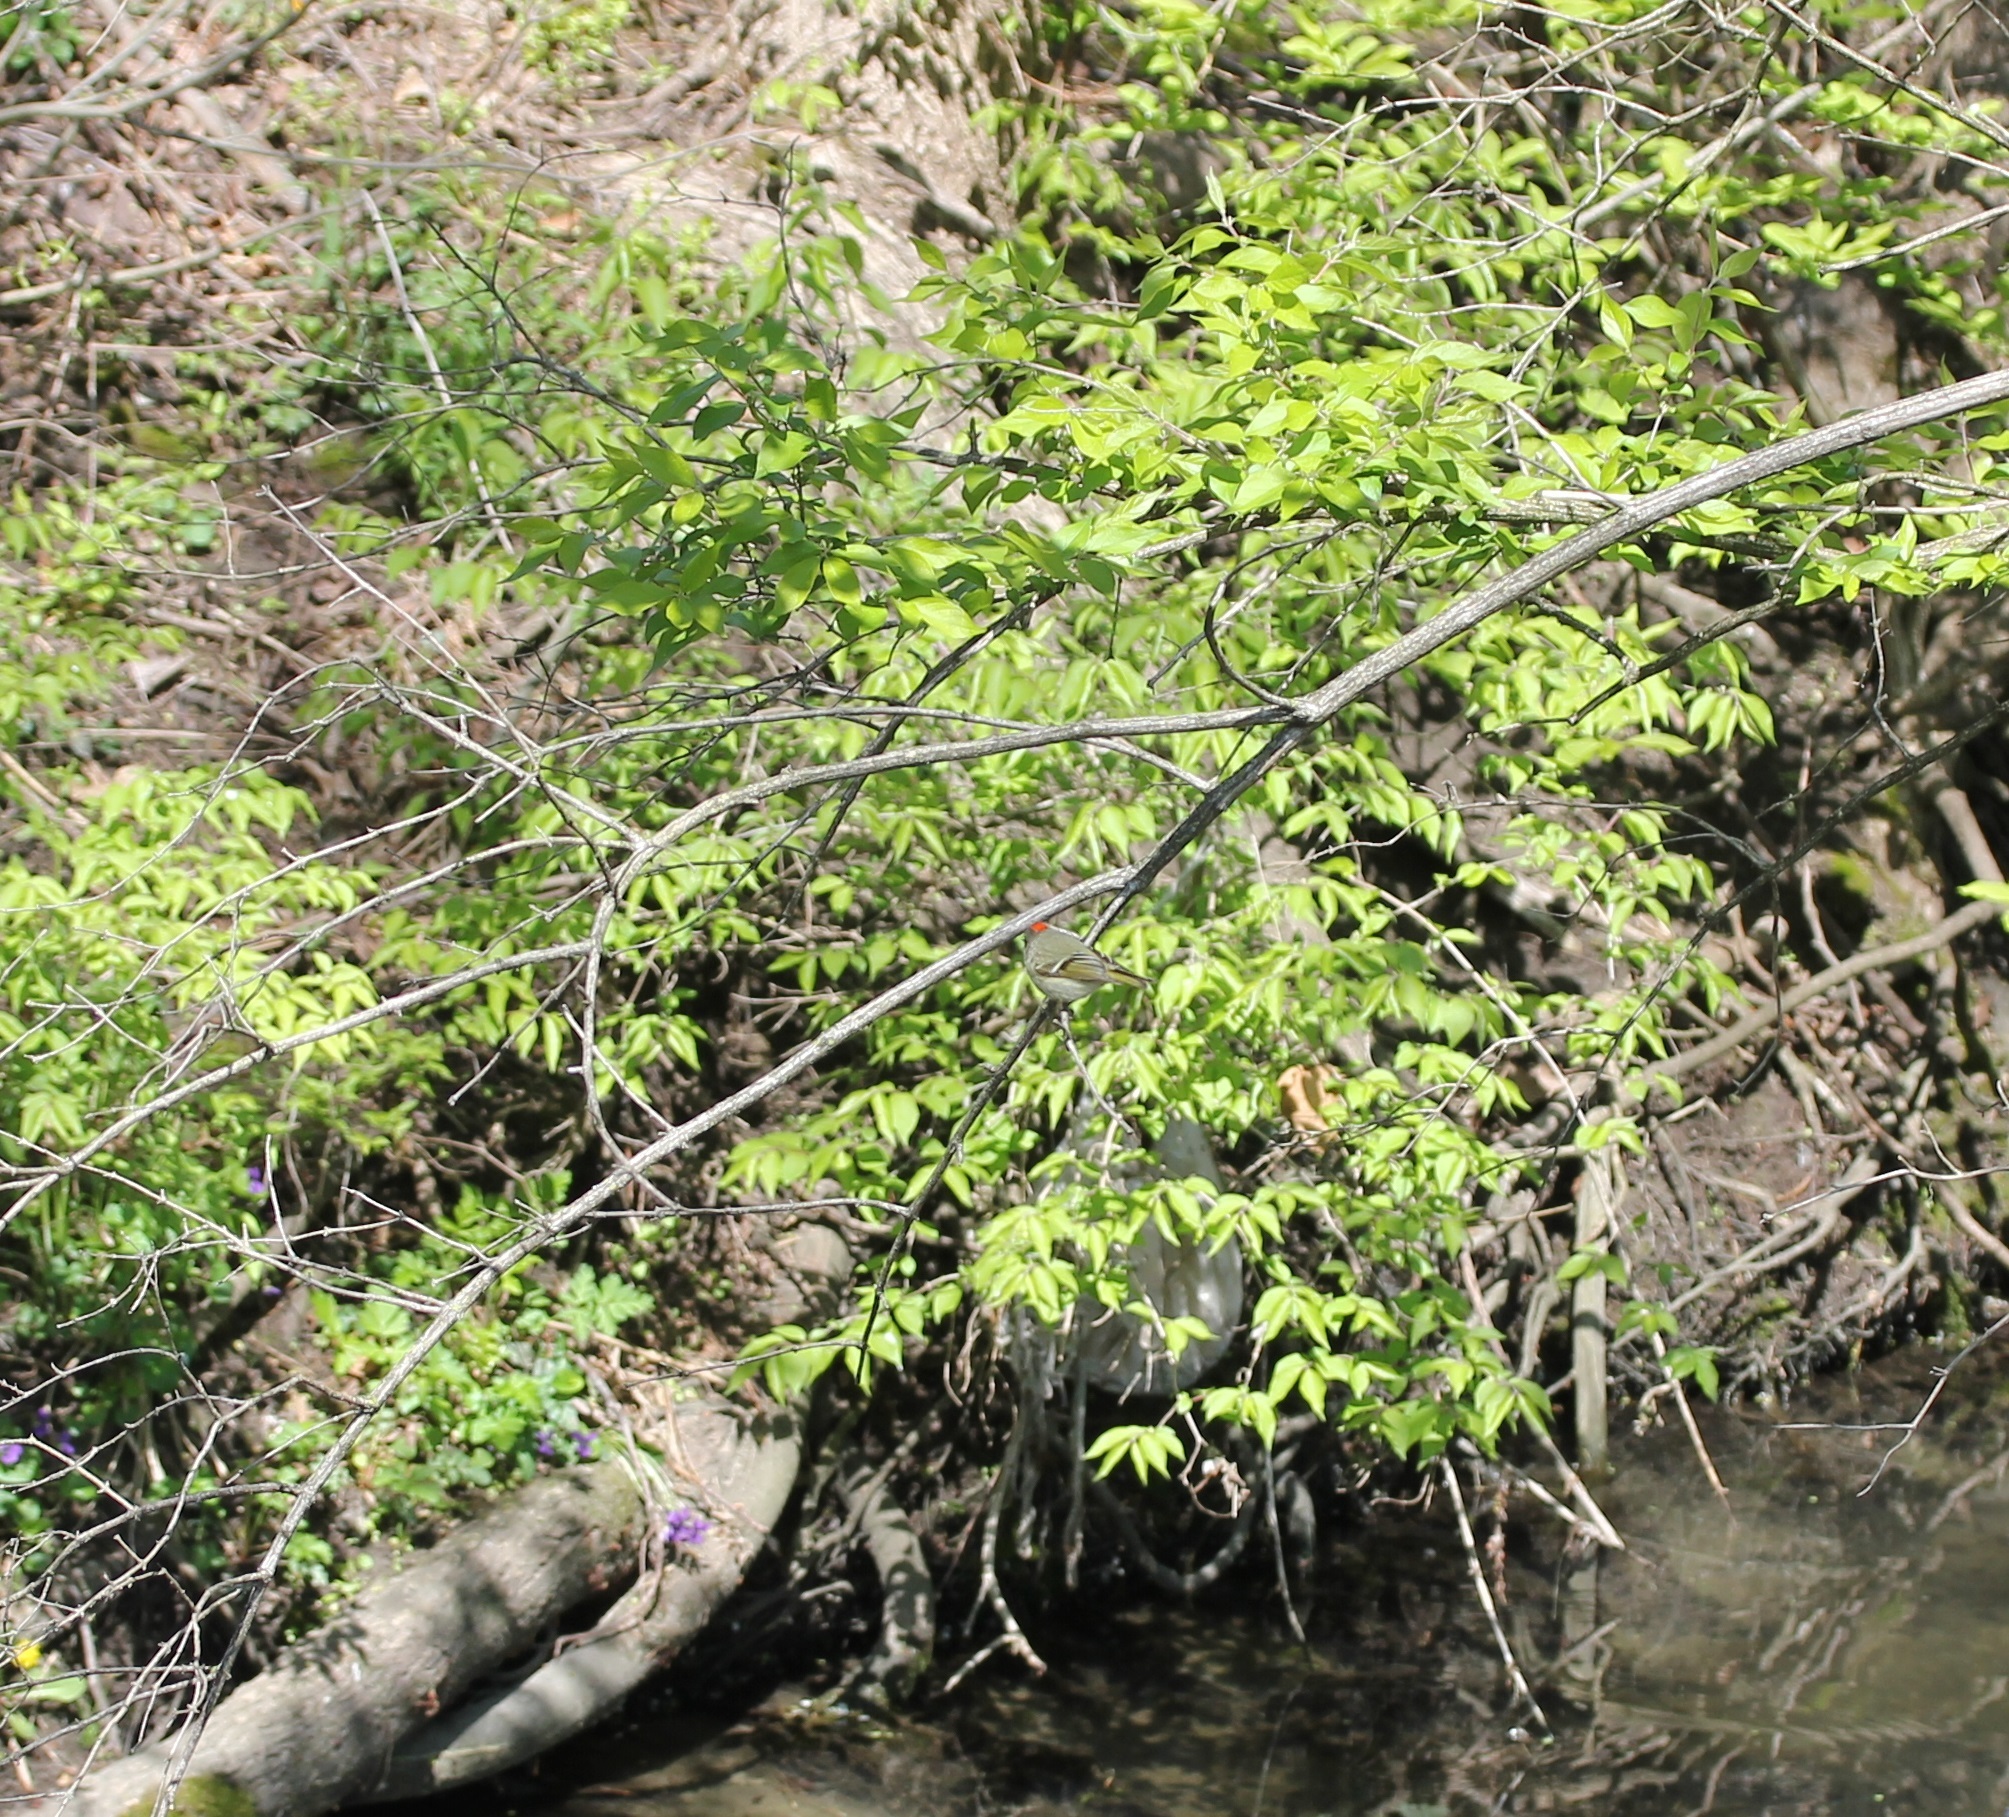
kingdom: Animalia
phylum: Chordata
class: Aves
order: Passeriformes
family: Regulidae
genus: Regulus
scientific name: Regulus calendula
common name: Ruby-crowned kinglet
